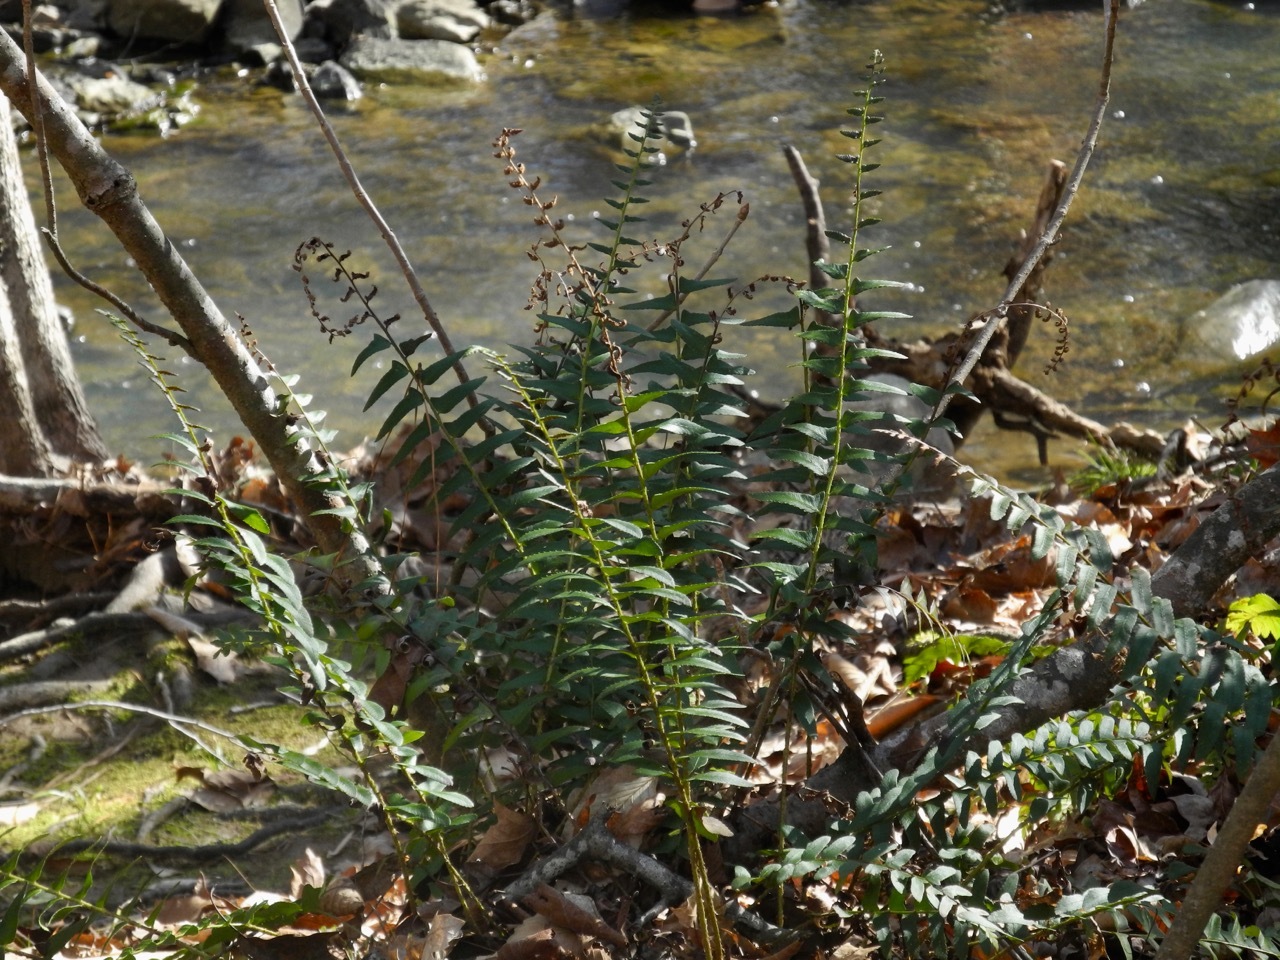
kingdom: Plantae
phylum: Tracheophyta
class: Polypodiopsida
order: Polypodiales
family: Dryopteridaceae
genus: Polystichum
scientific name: Polystichum acrostichoides
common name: Christmas fern
